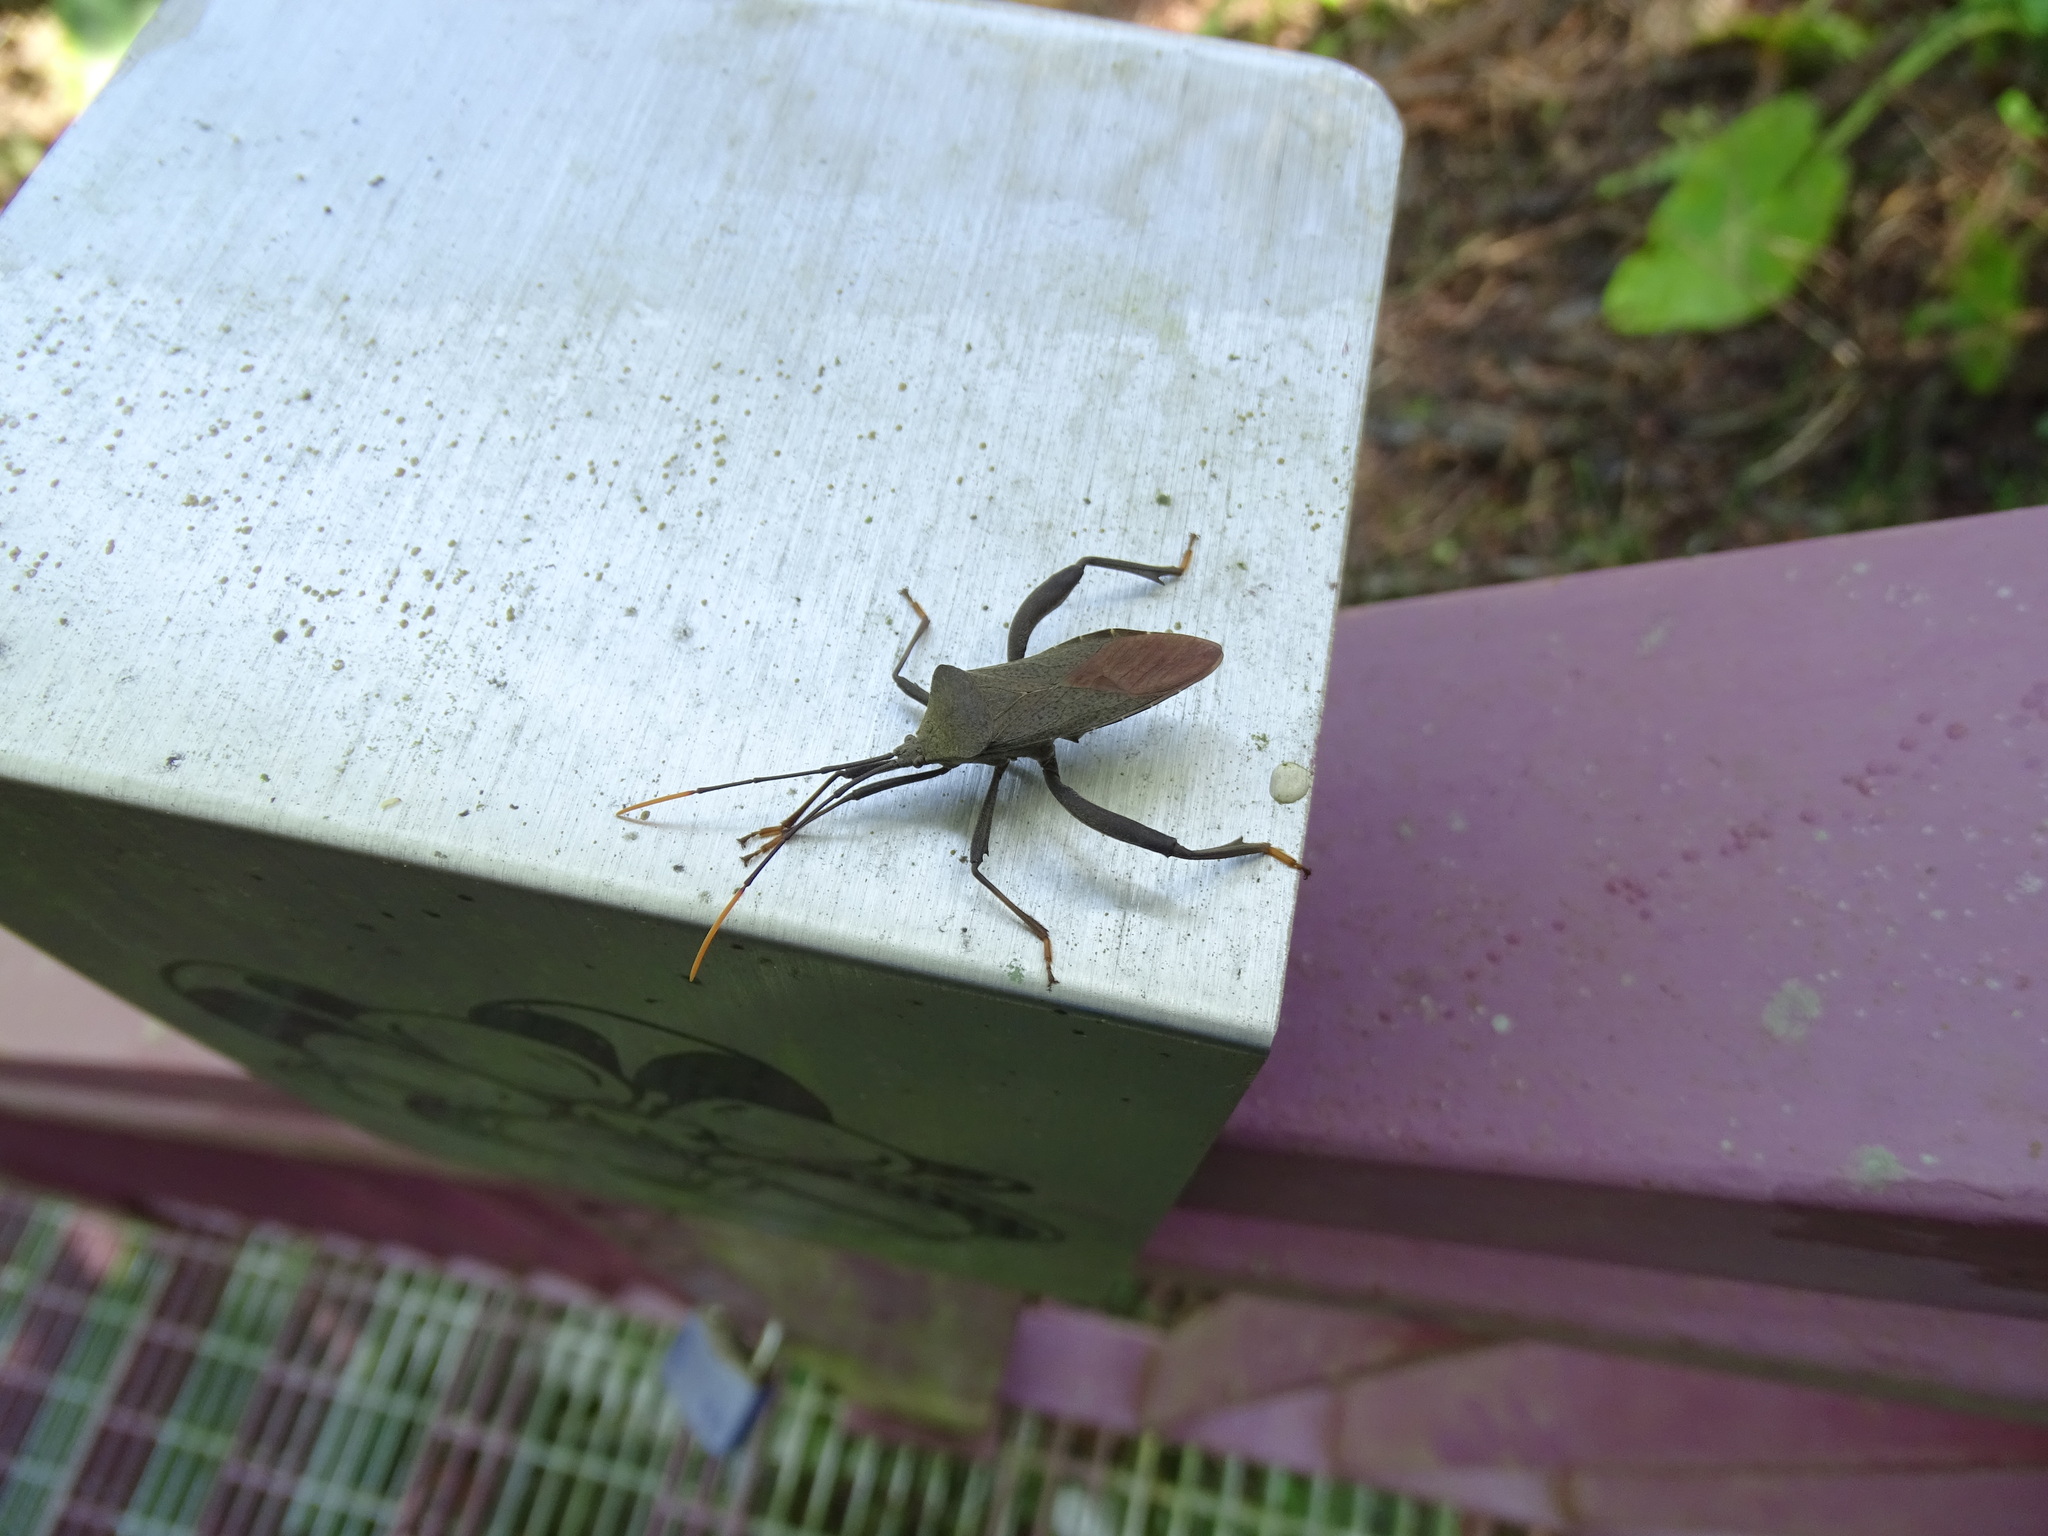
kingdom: Animalia
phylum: Arthropoda
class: Insecta
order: Hemiptera
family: Coreidae
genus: Mictis
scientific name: Mictis fuscipes
